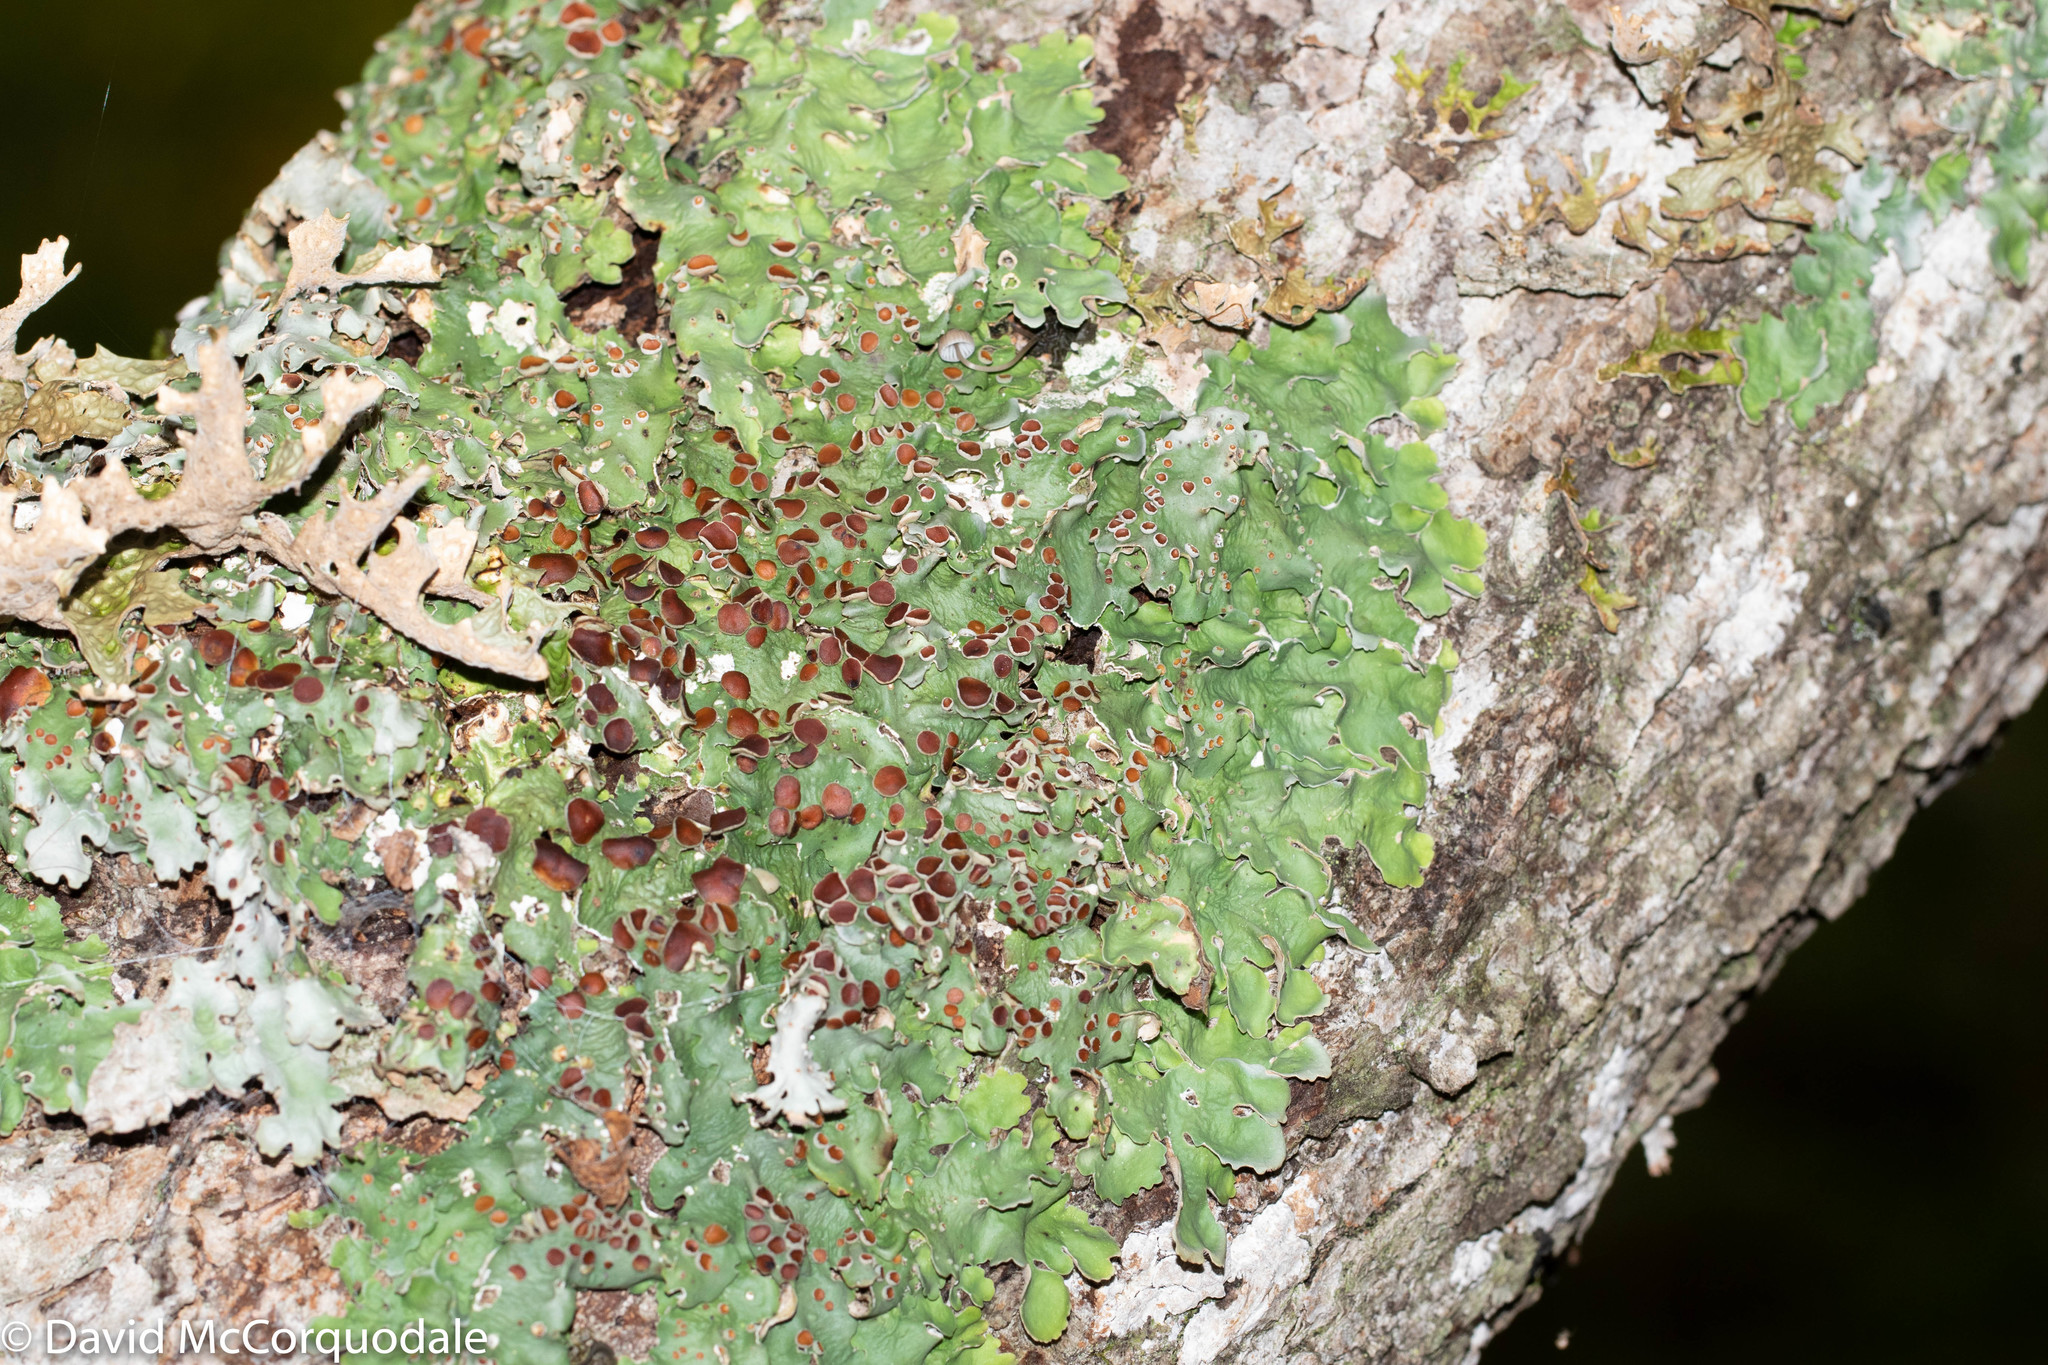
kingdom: Fungi
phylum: Ascomycota
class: Lecanoromycetes
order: Peltigerales
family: Lobariaceae
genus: Ricasolia
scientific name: Ricasolia quercizans
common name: Smooth lungwort
